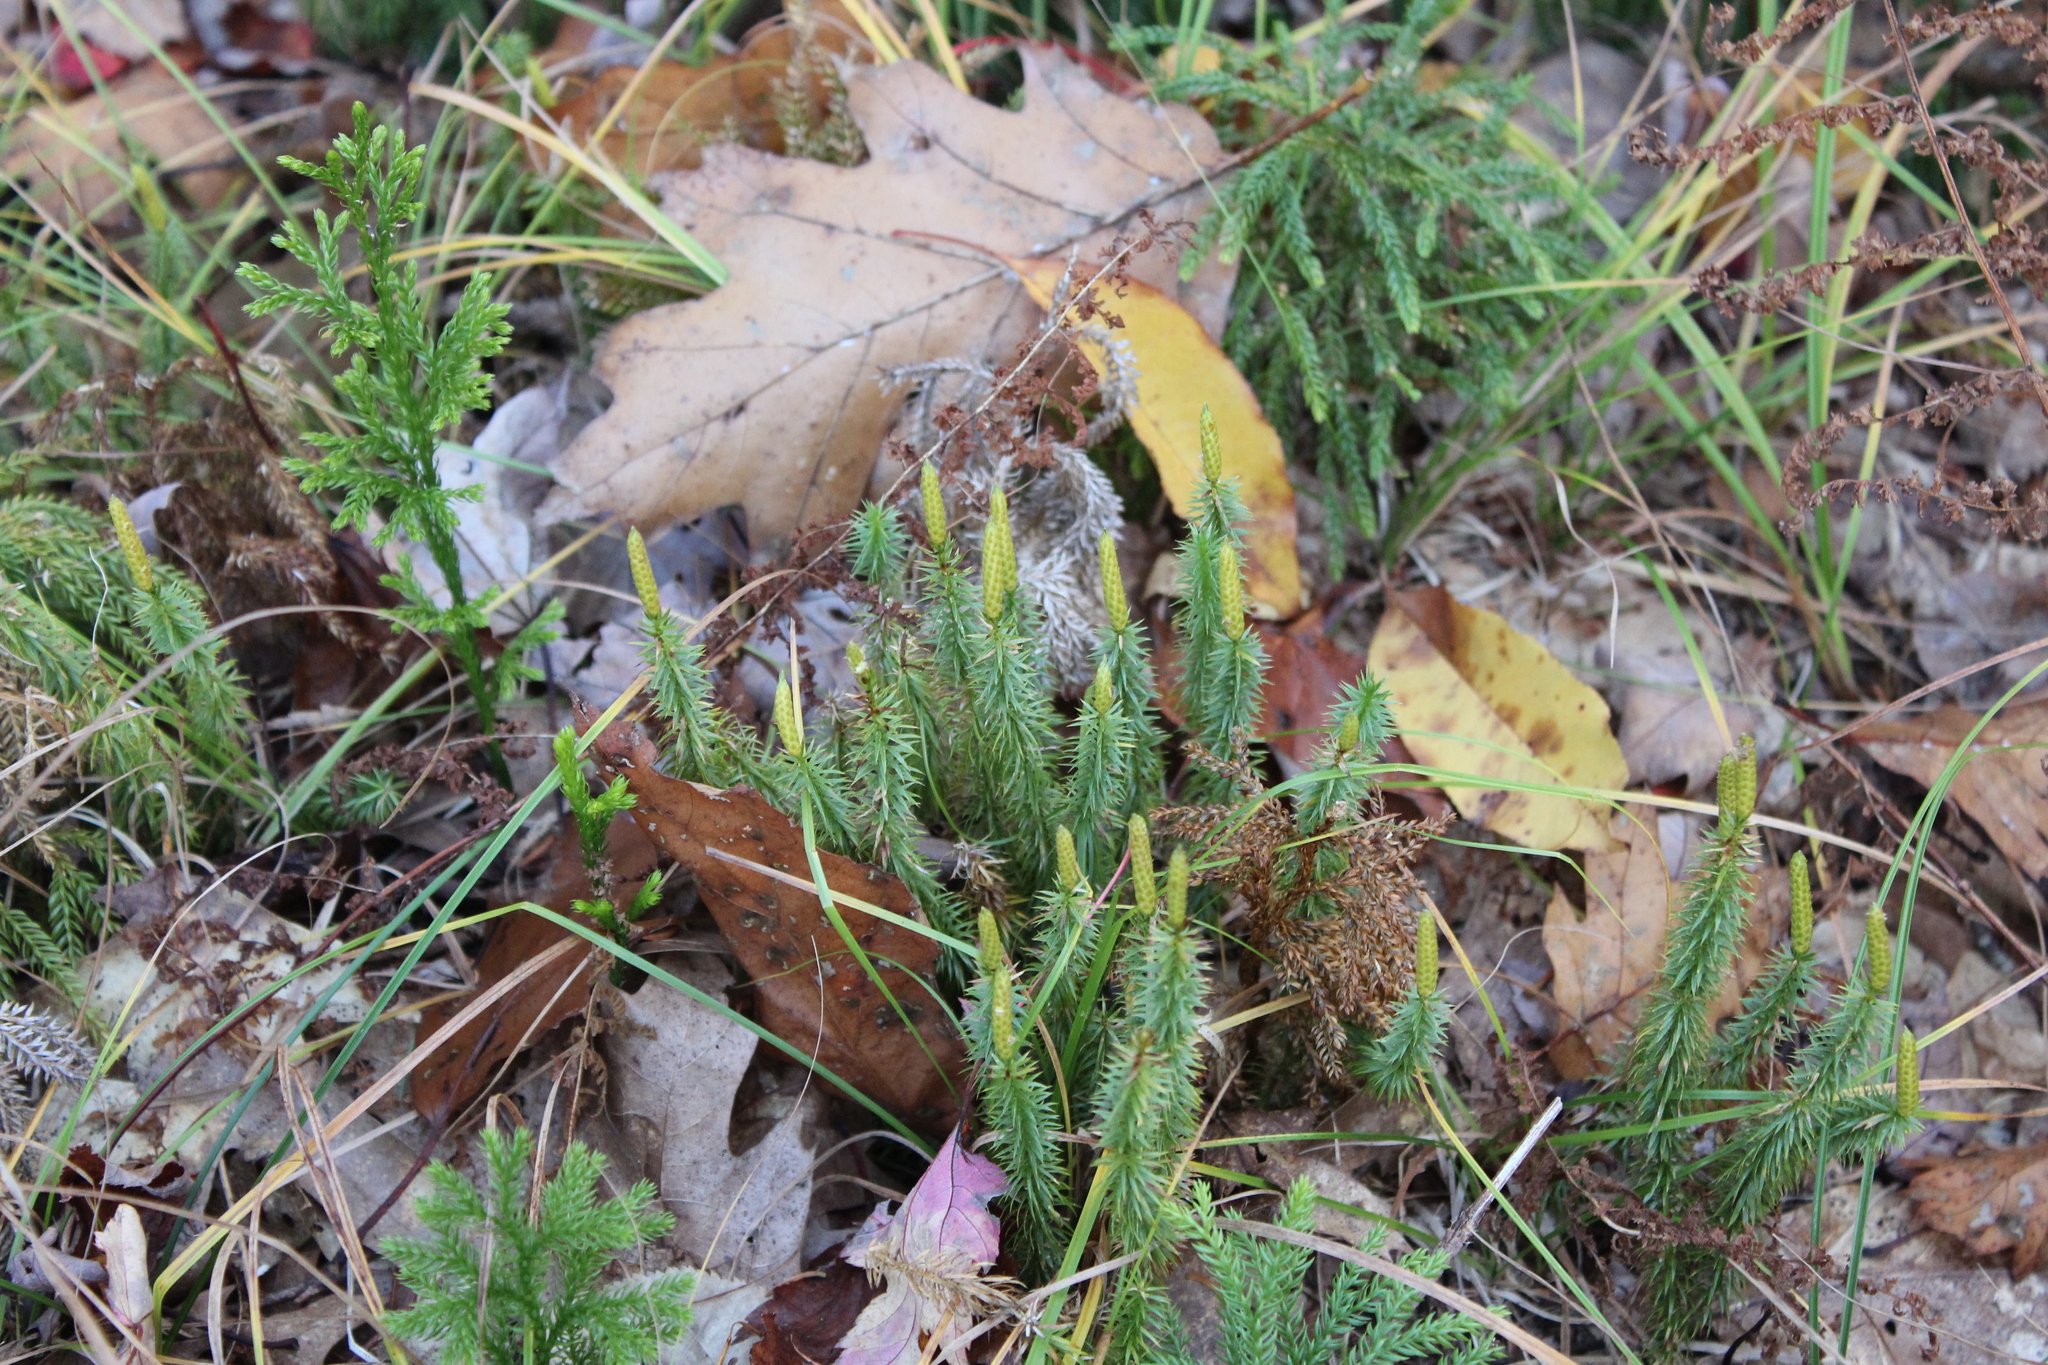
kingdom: Plantae
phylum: Tracheophyta
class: Lycopodiopsida
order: Lycopodiales
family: Lycopodiaceae
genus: Spinulum
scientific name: Spinulum annotinum
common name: Interrupted club-moss
